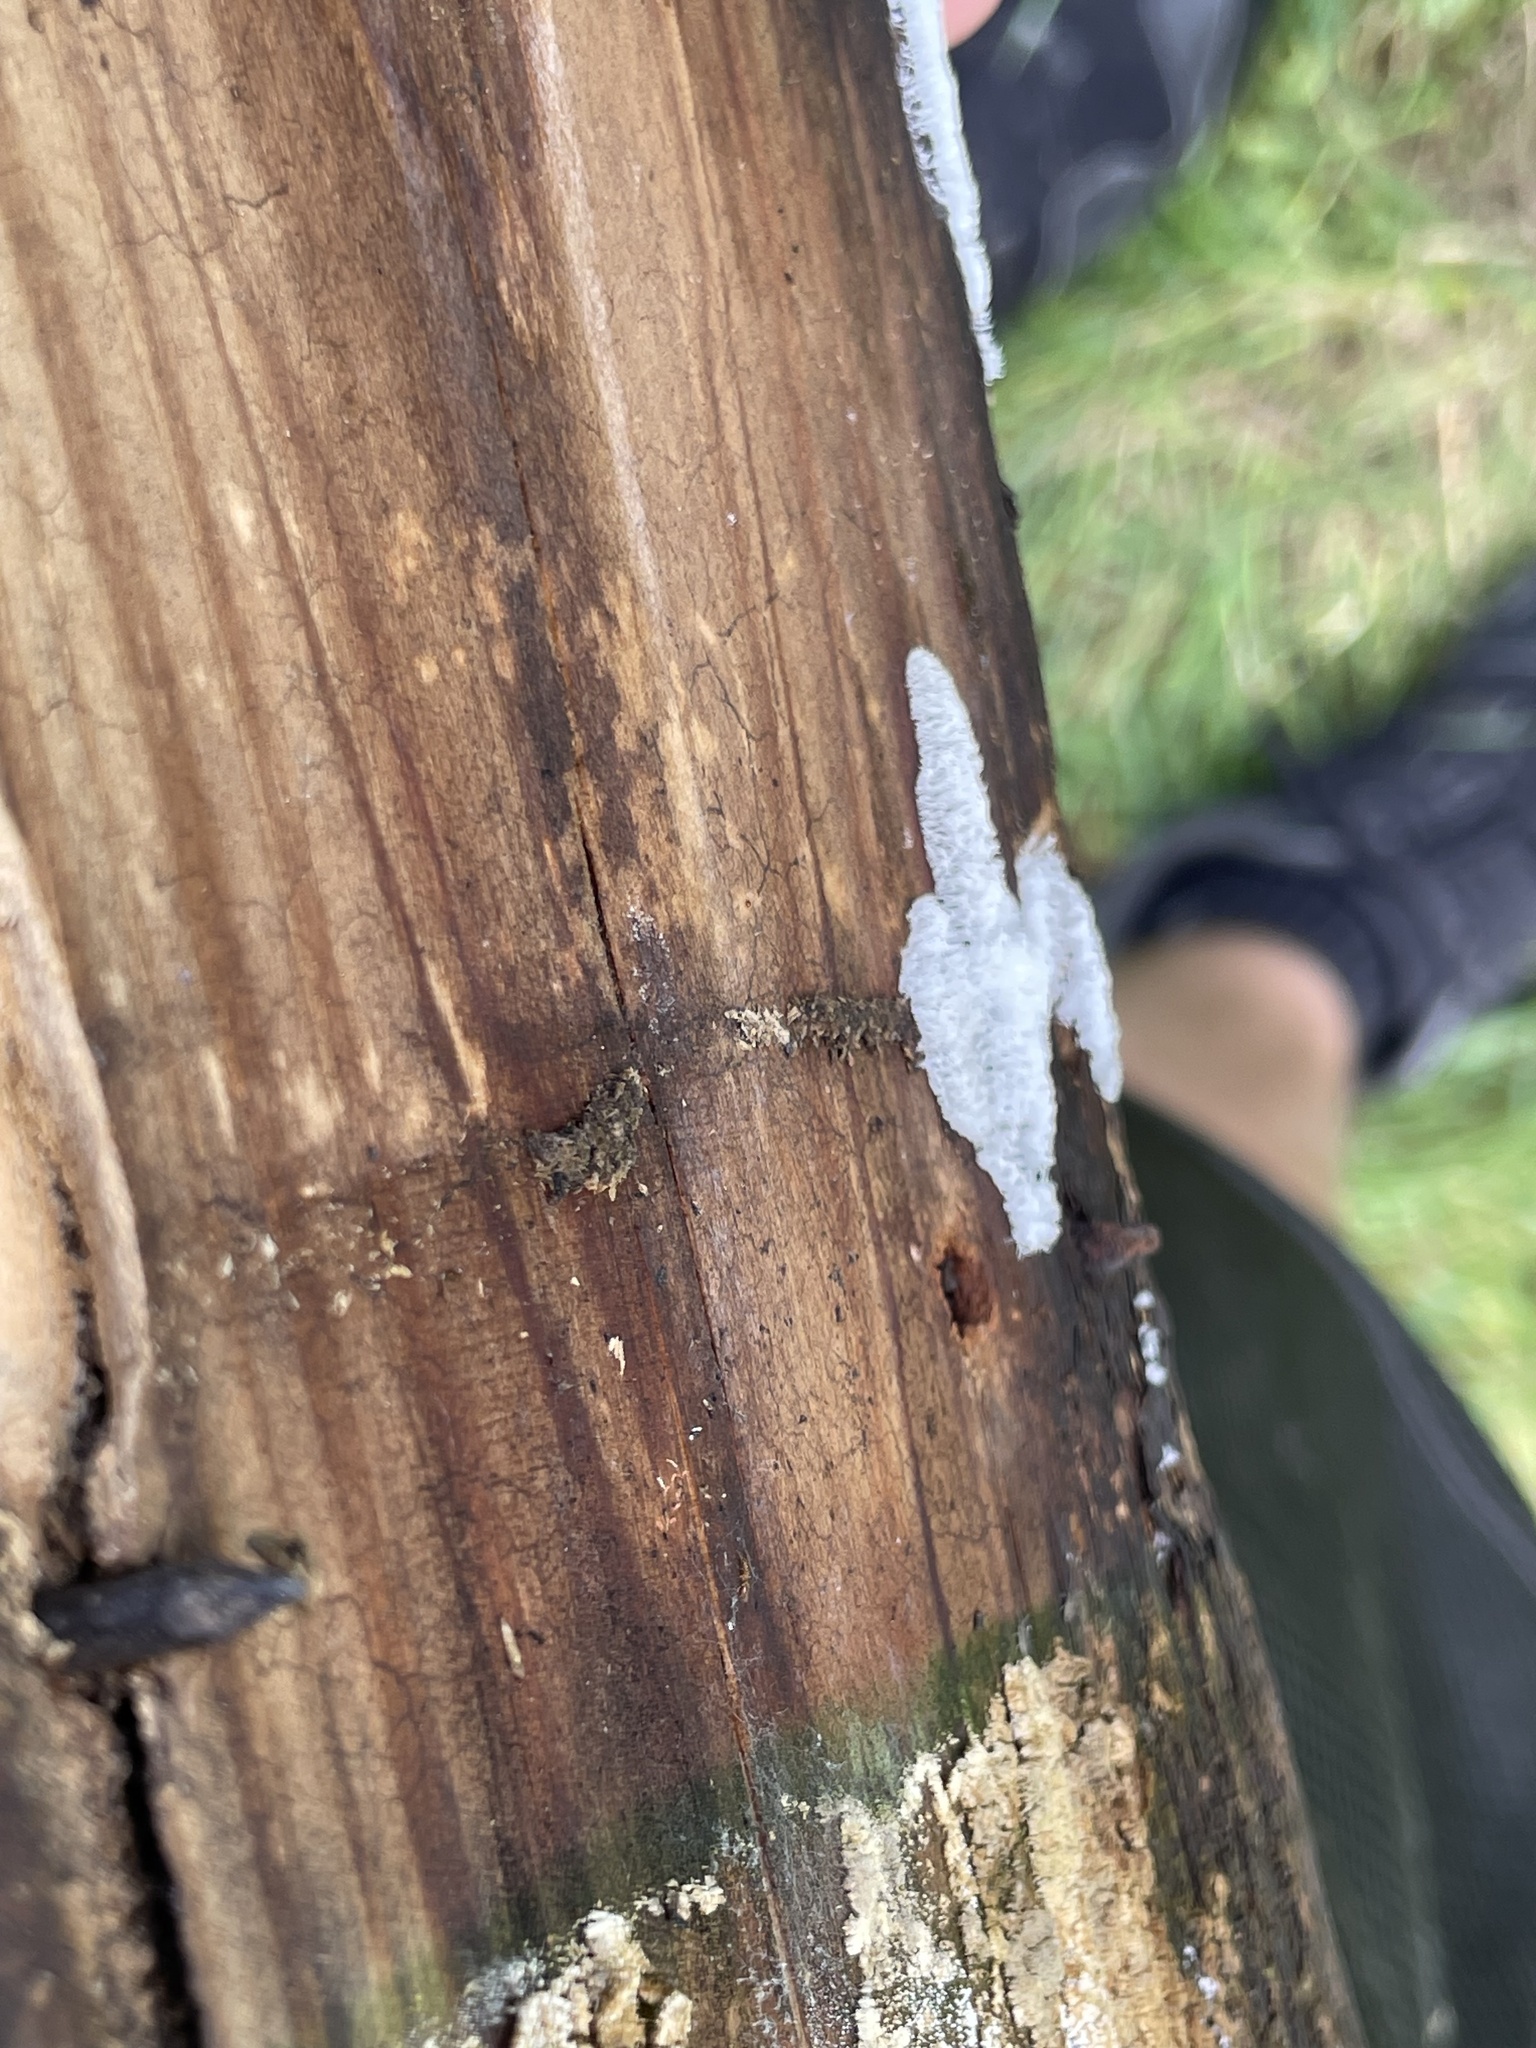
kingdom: Protozoa
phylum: Mycetozoa
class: Protosteliomycetes
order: Ceratiomyxales
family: Ceratiomyxaceae
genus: Ceratiomyxa
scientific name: Ceratiomyxa fruticulosa
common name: Honeycomb coral slime mold
